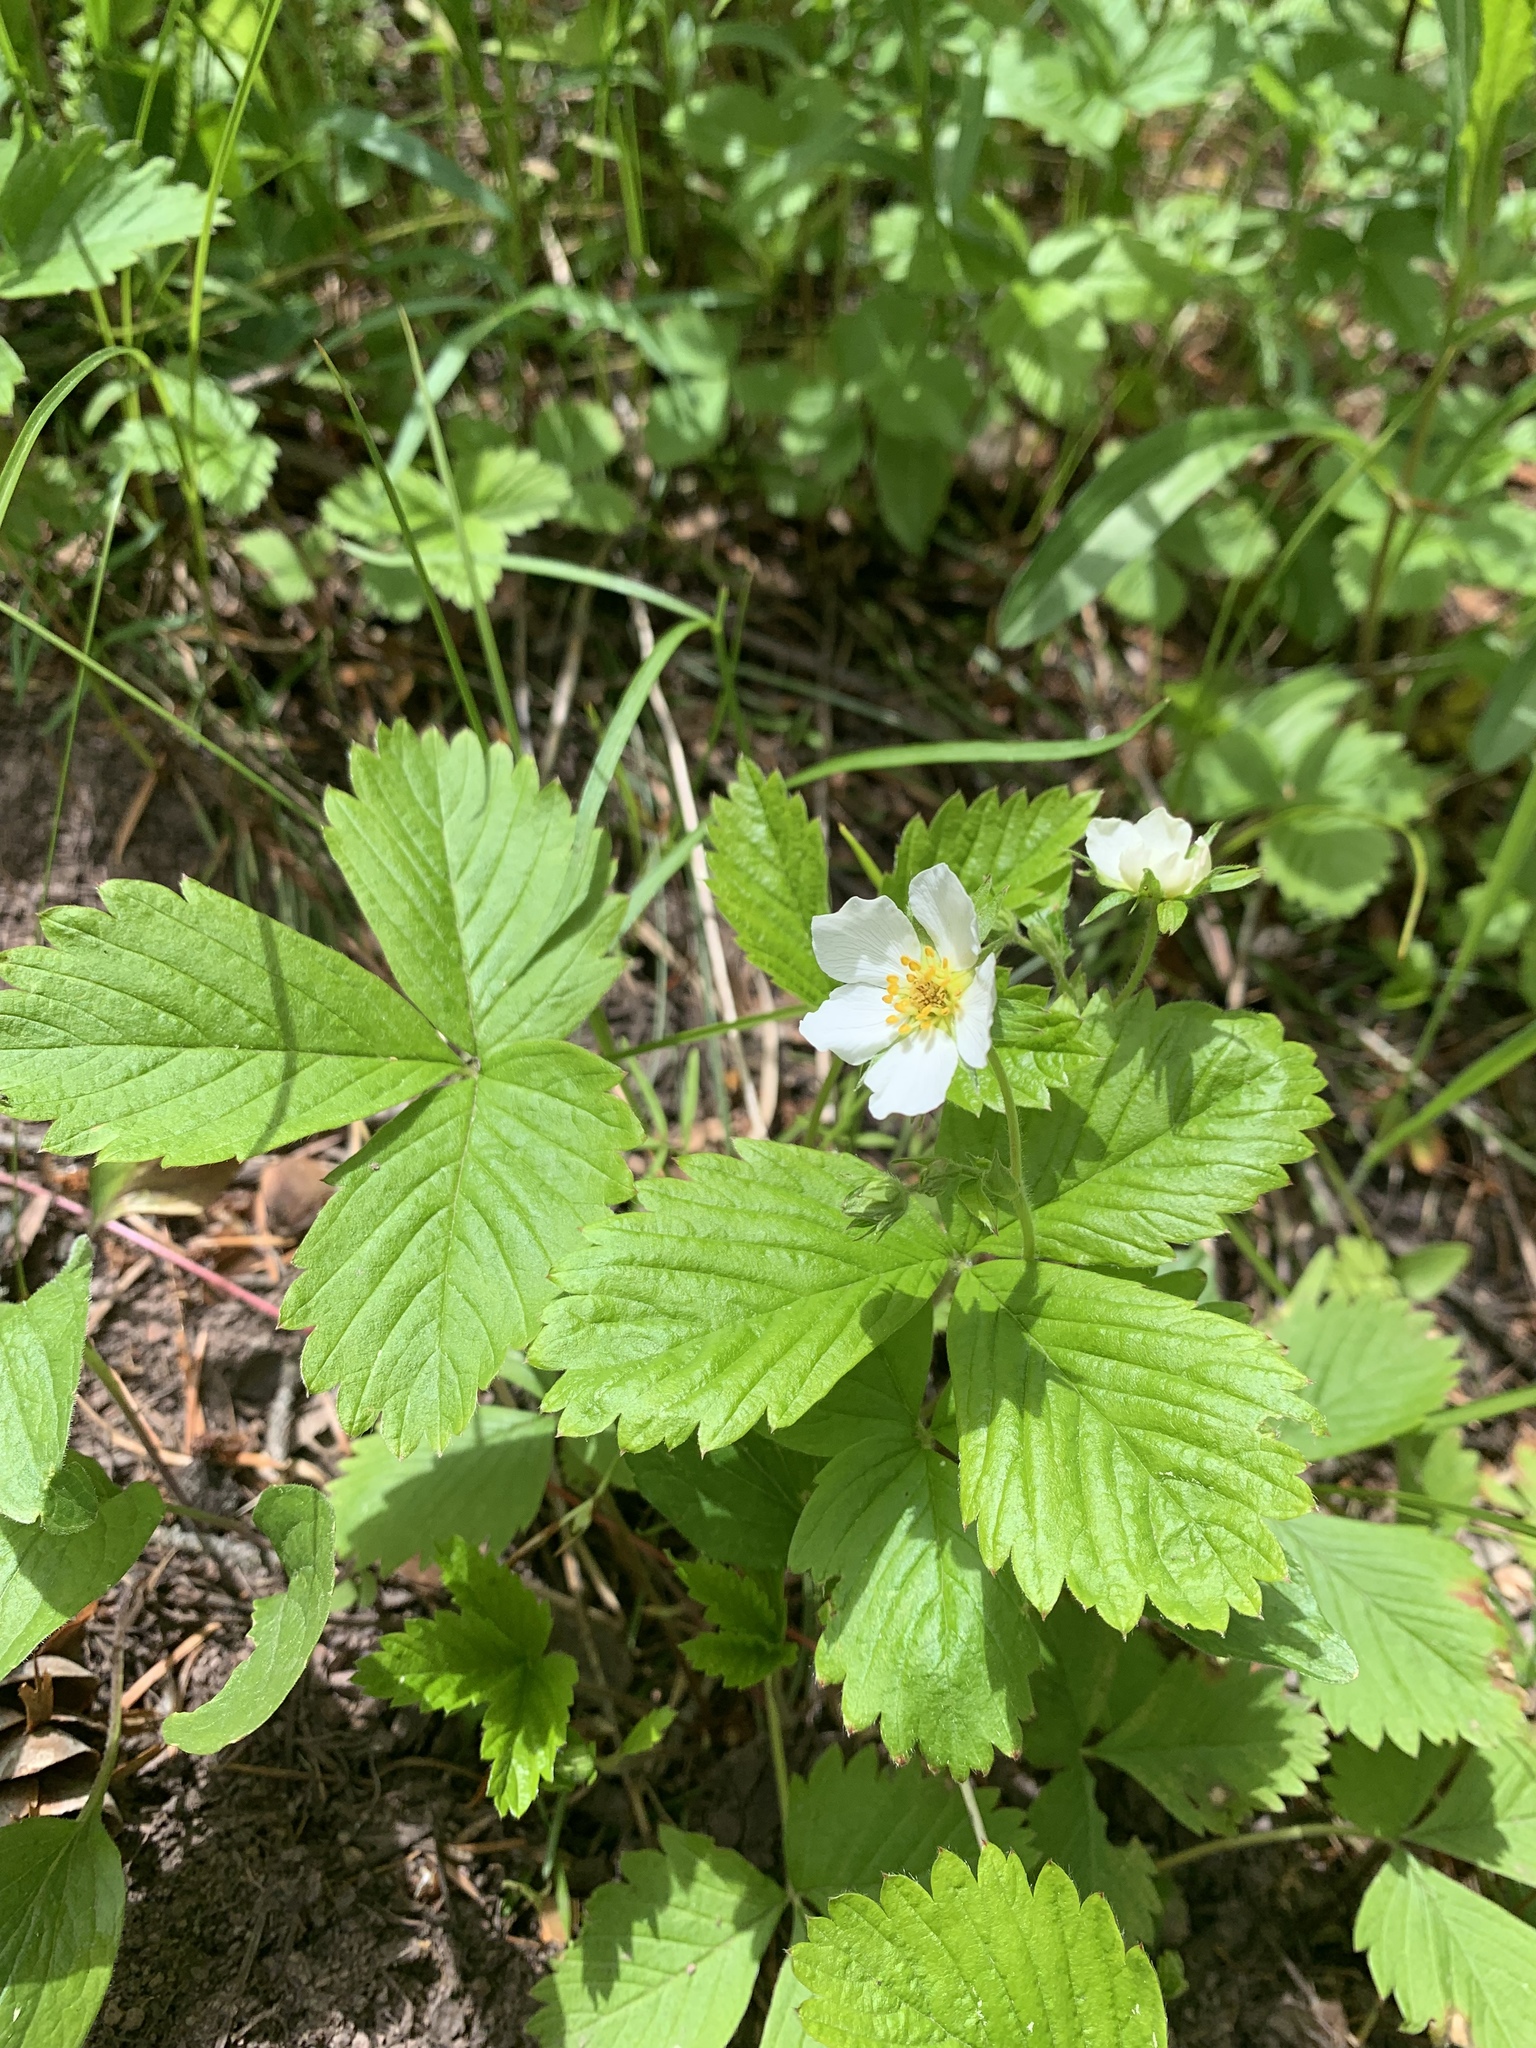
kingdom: Plantae
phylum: Tracheophyta
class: Magnoliopsida
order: Rosales
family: Rosaceae
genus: Fragaria
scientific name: Fragaria vesca
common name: Wild strawberry
